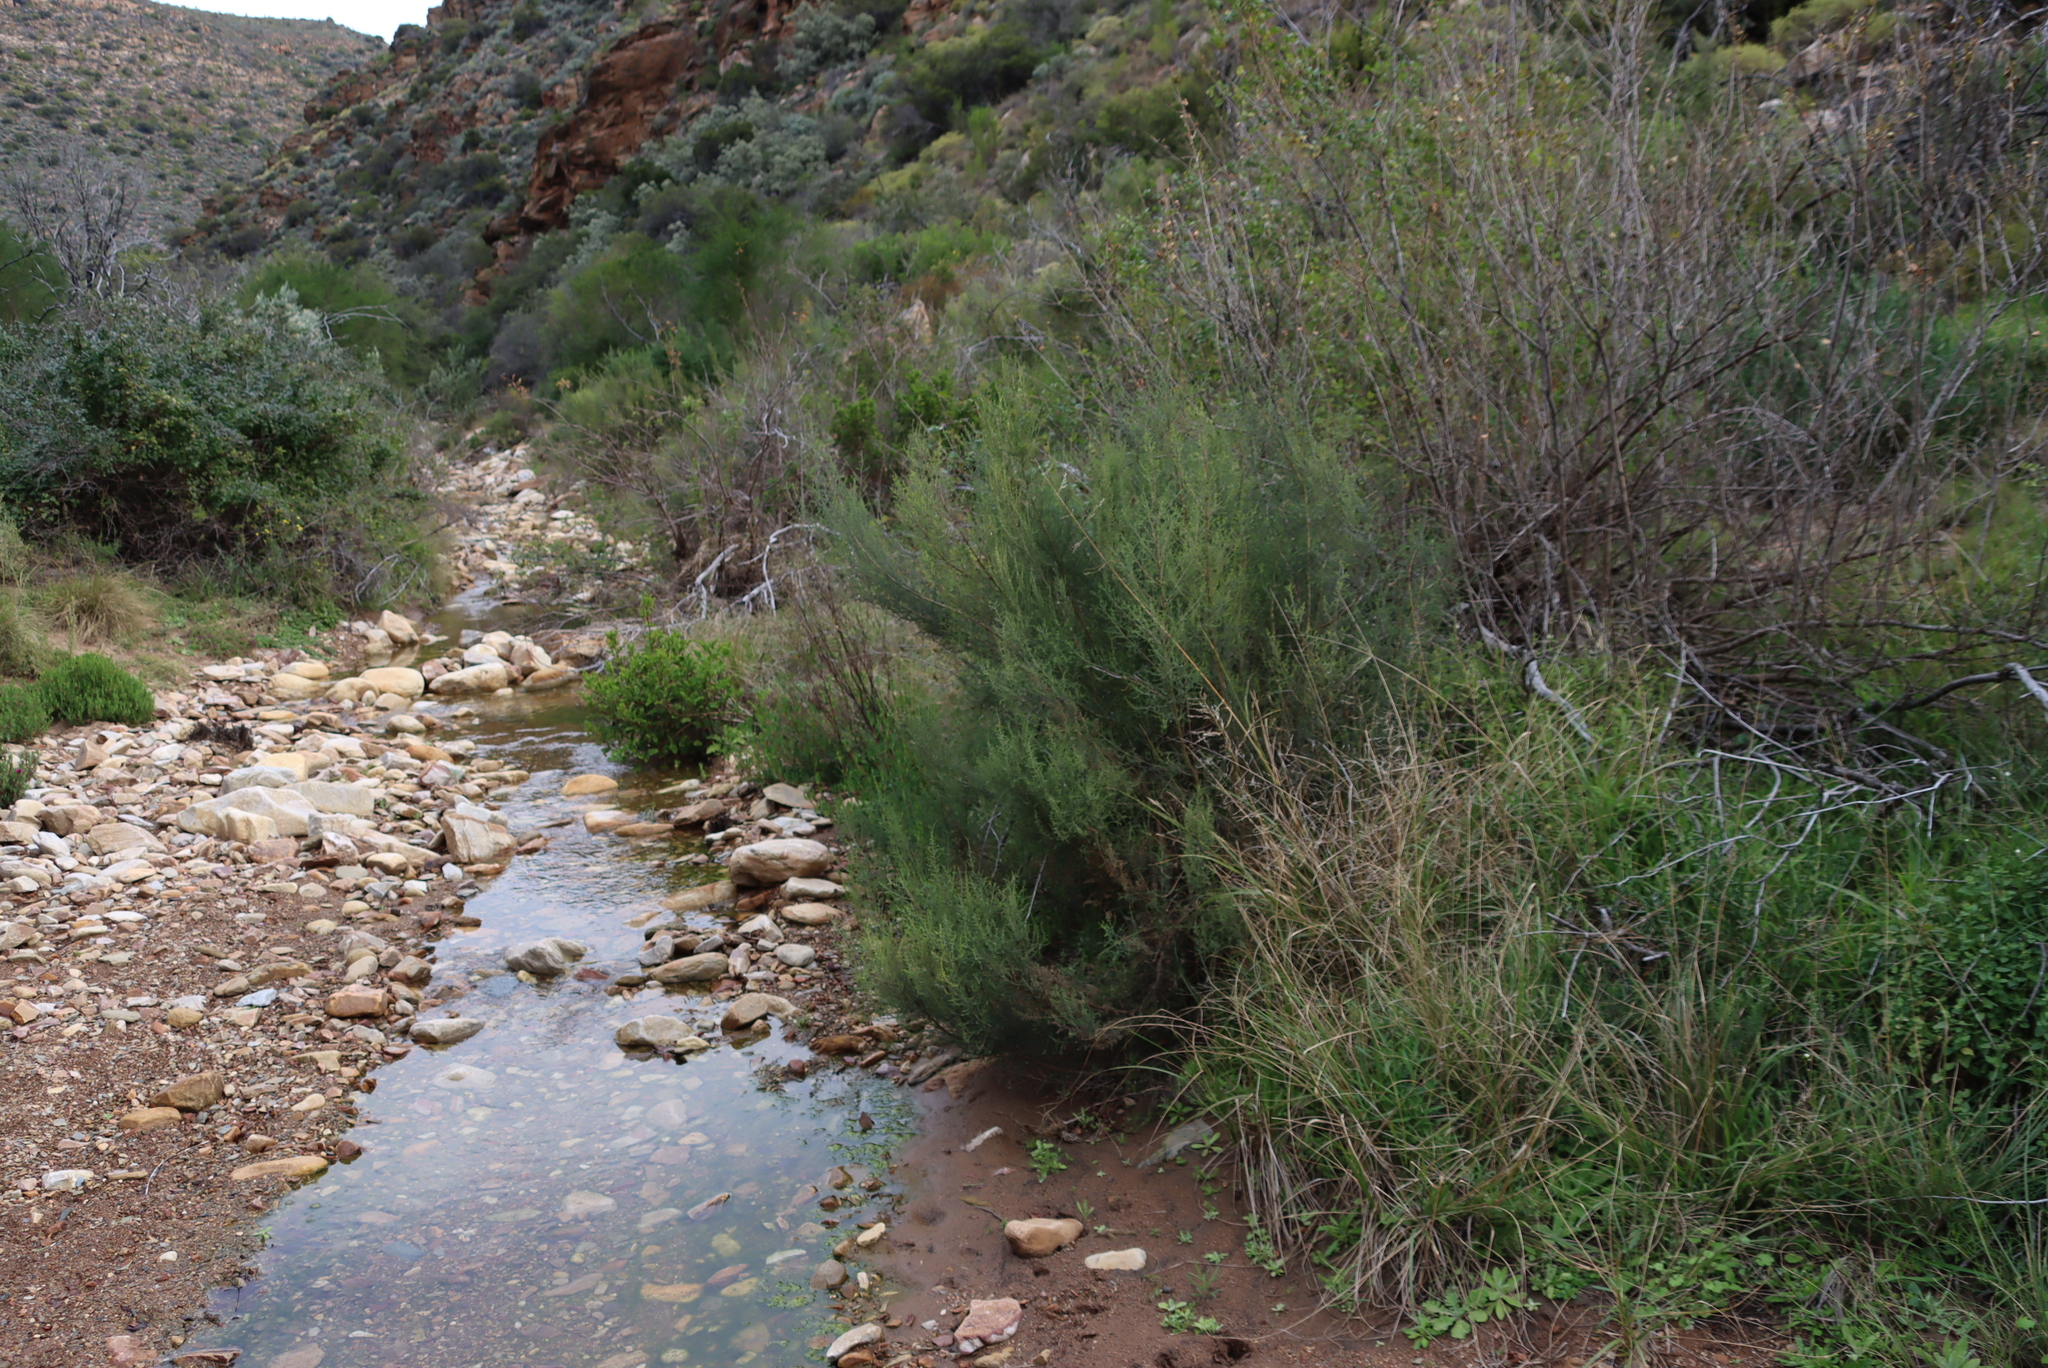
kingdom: Plantae
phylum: Tracheophyta
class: Magnoliopsida
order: Asterales
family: Asteraceae
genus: Dicerothamnus
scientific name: Dicerothamnus rhinocerotis
